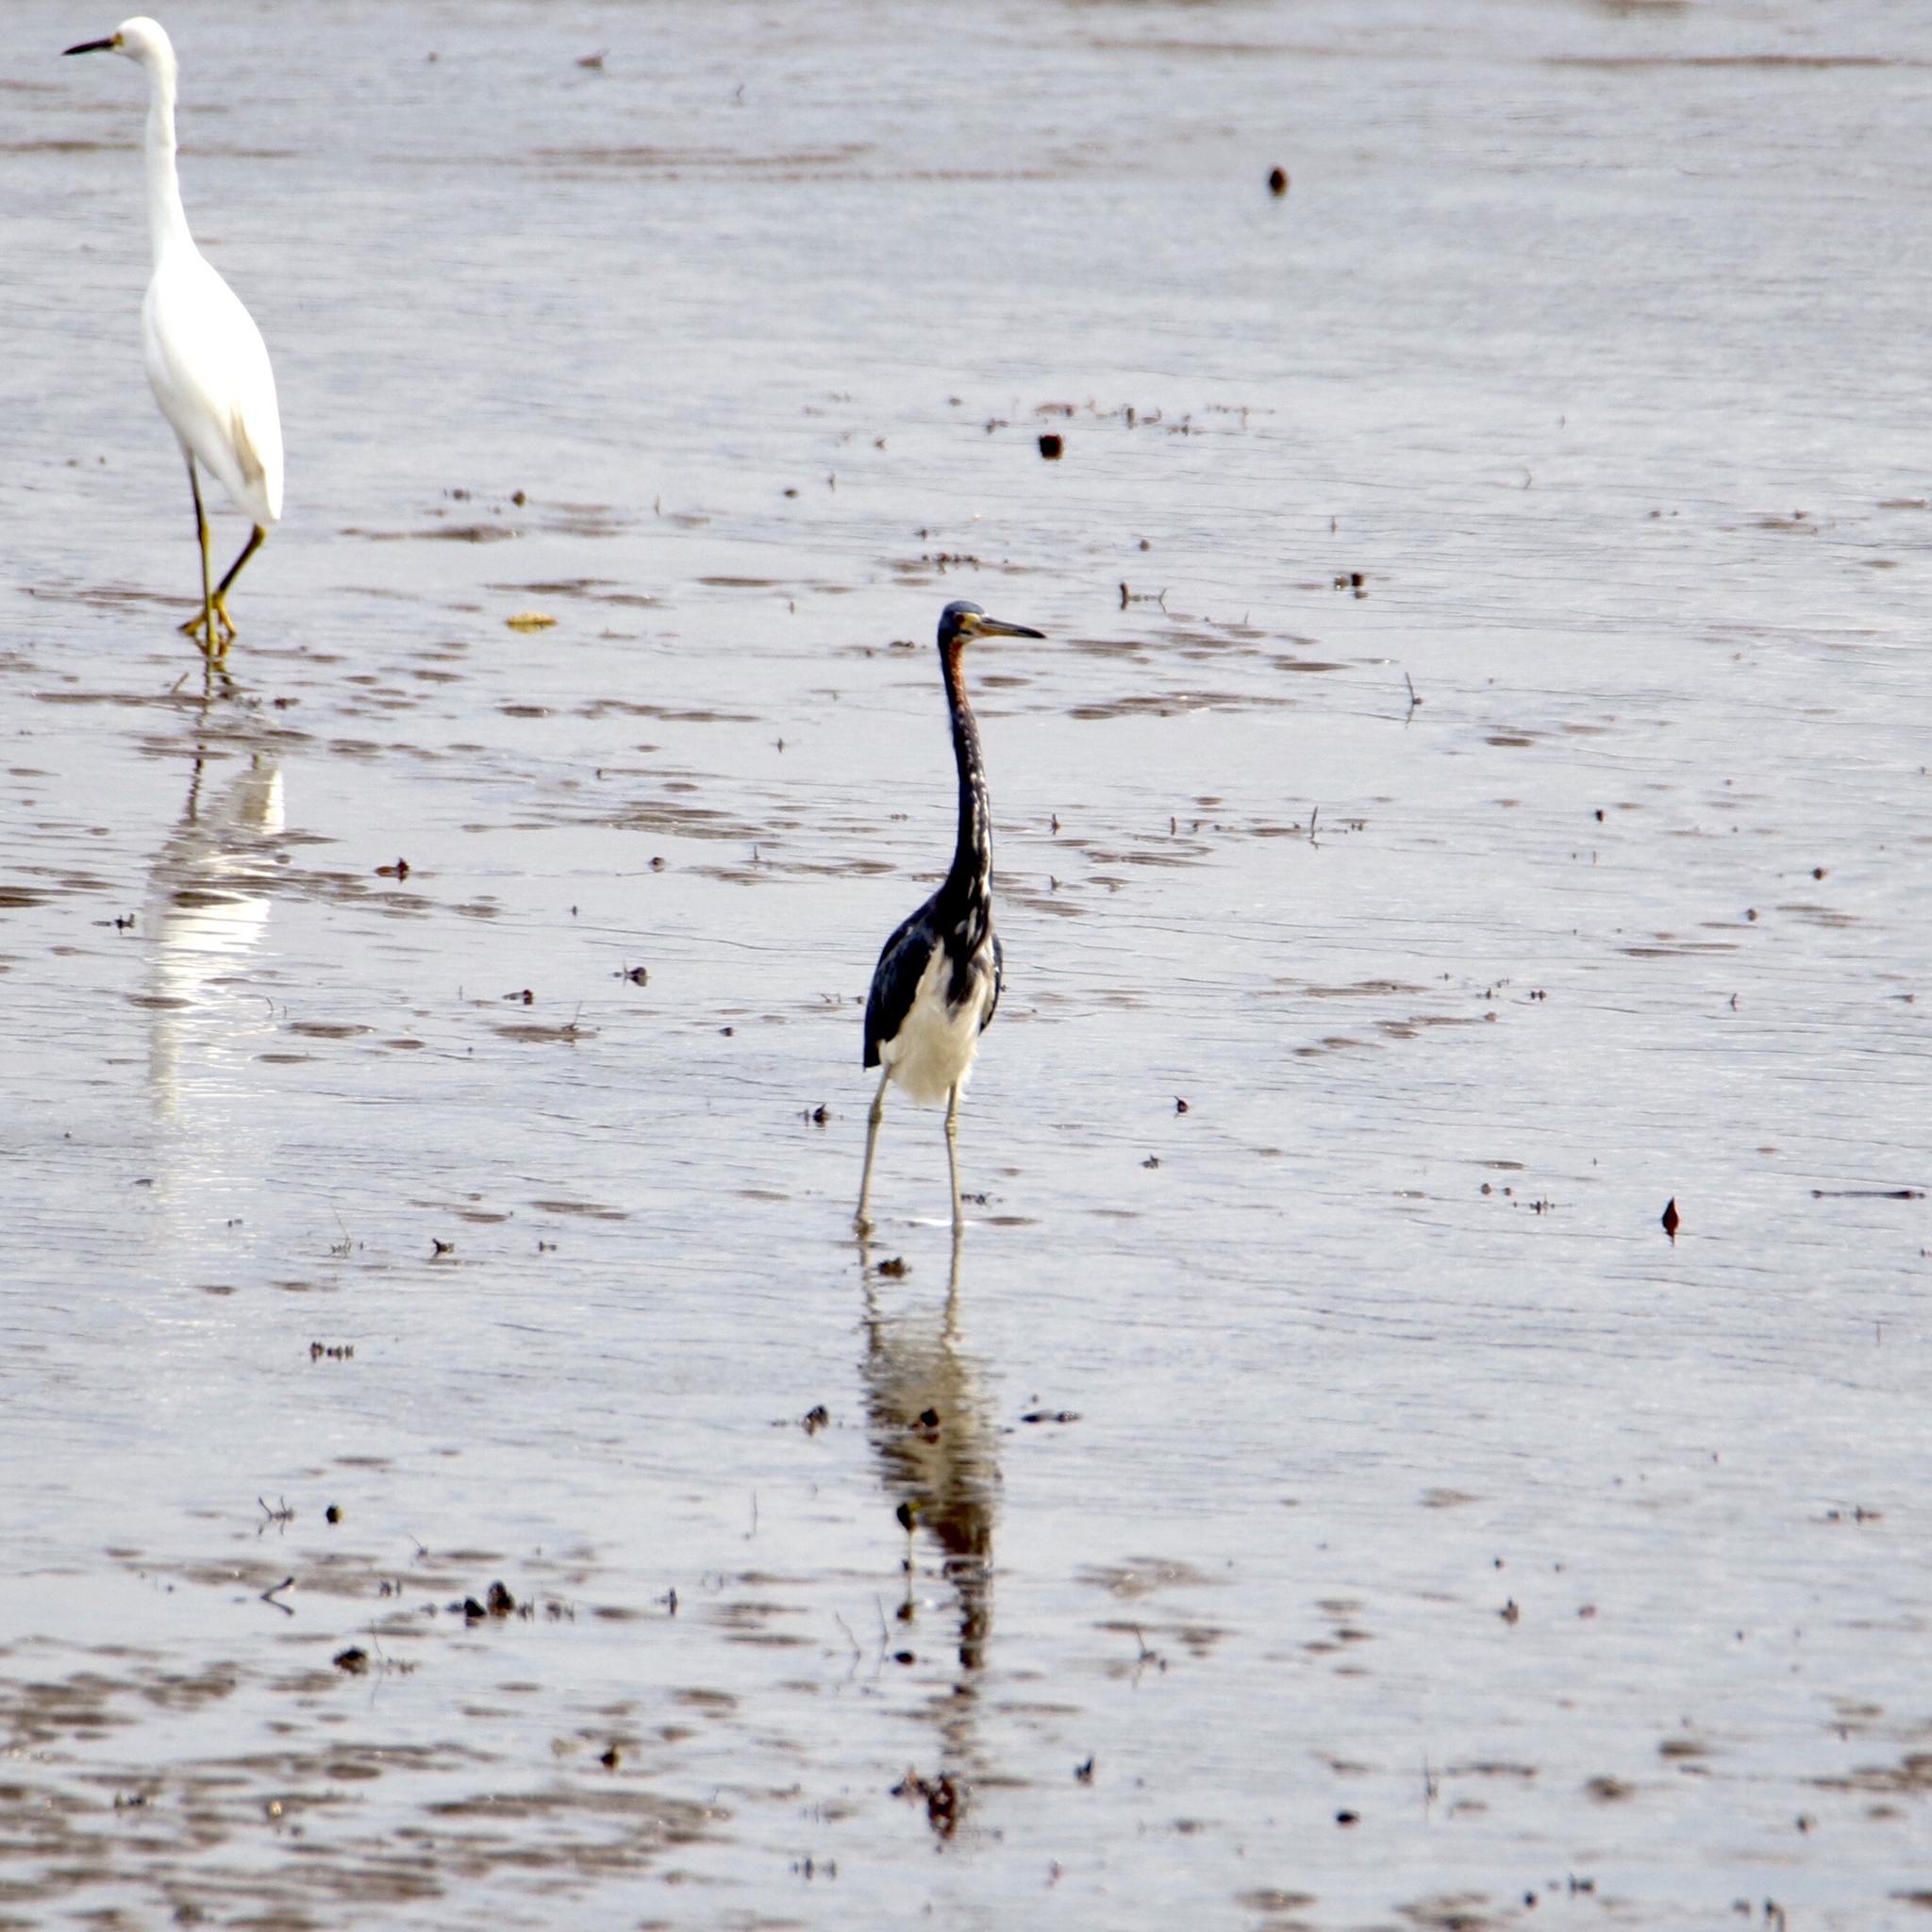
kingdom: Animalia
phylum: Chordata
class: Aves
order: Pelecaniformes
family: Ardeidae
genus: Egretta
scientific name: Egretta tricolor
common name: Tricolored heron
